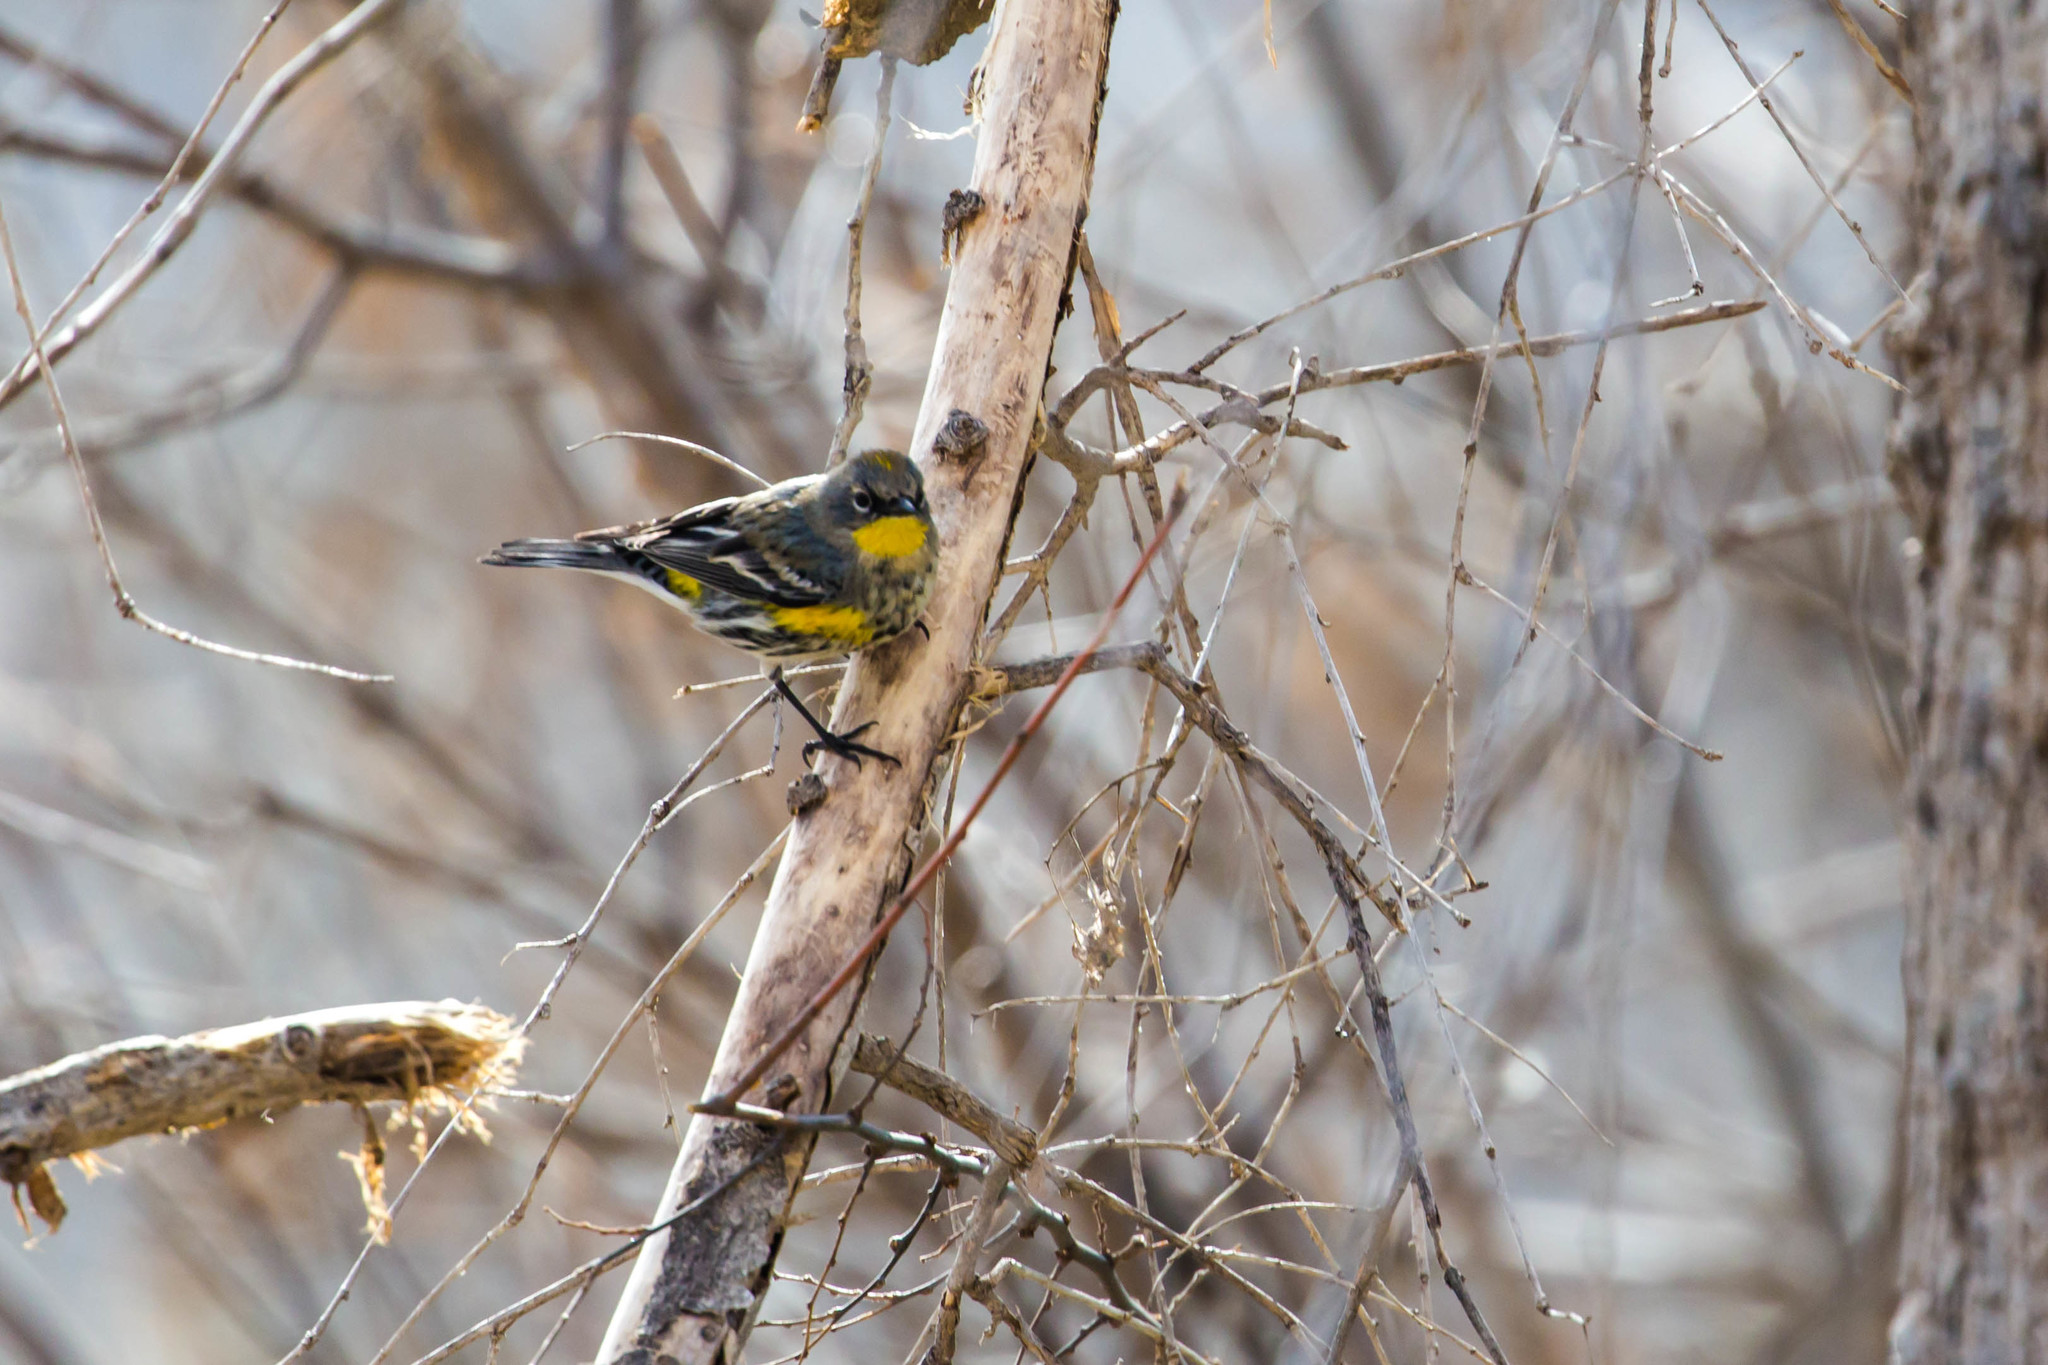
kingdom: Animalia
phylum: Chordata
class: Aves
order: Passeriformes
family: Parulidae
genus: Setophaga
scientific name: Setophaga coronata
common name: Myrtle warbler
